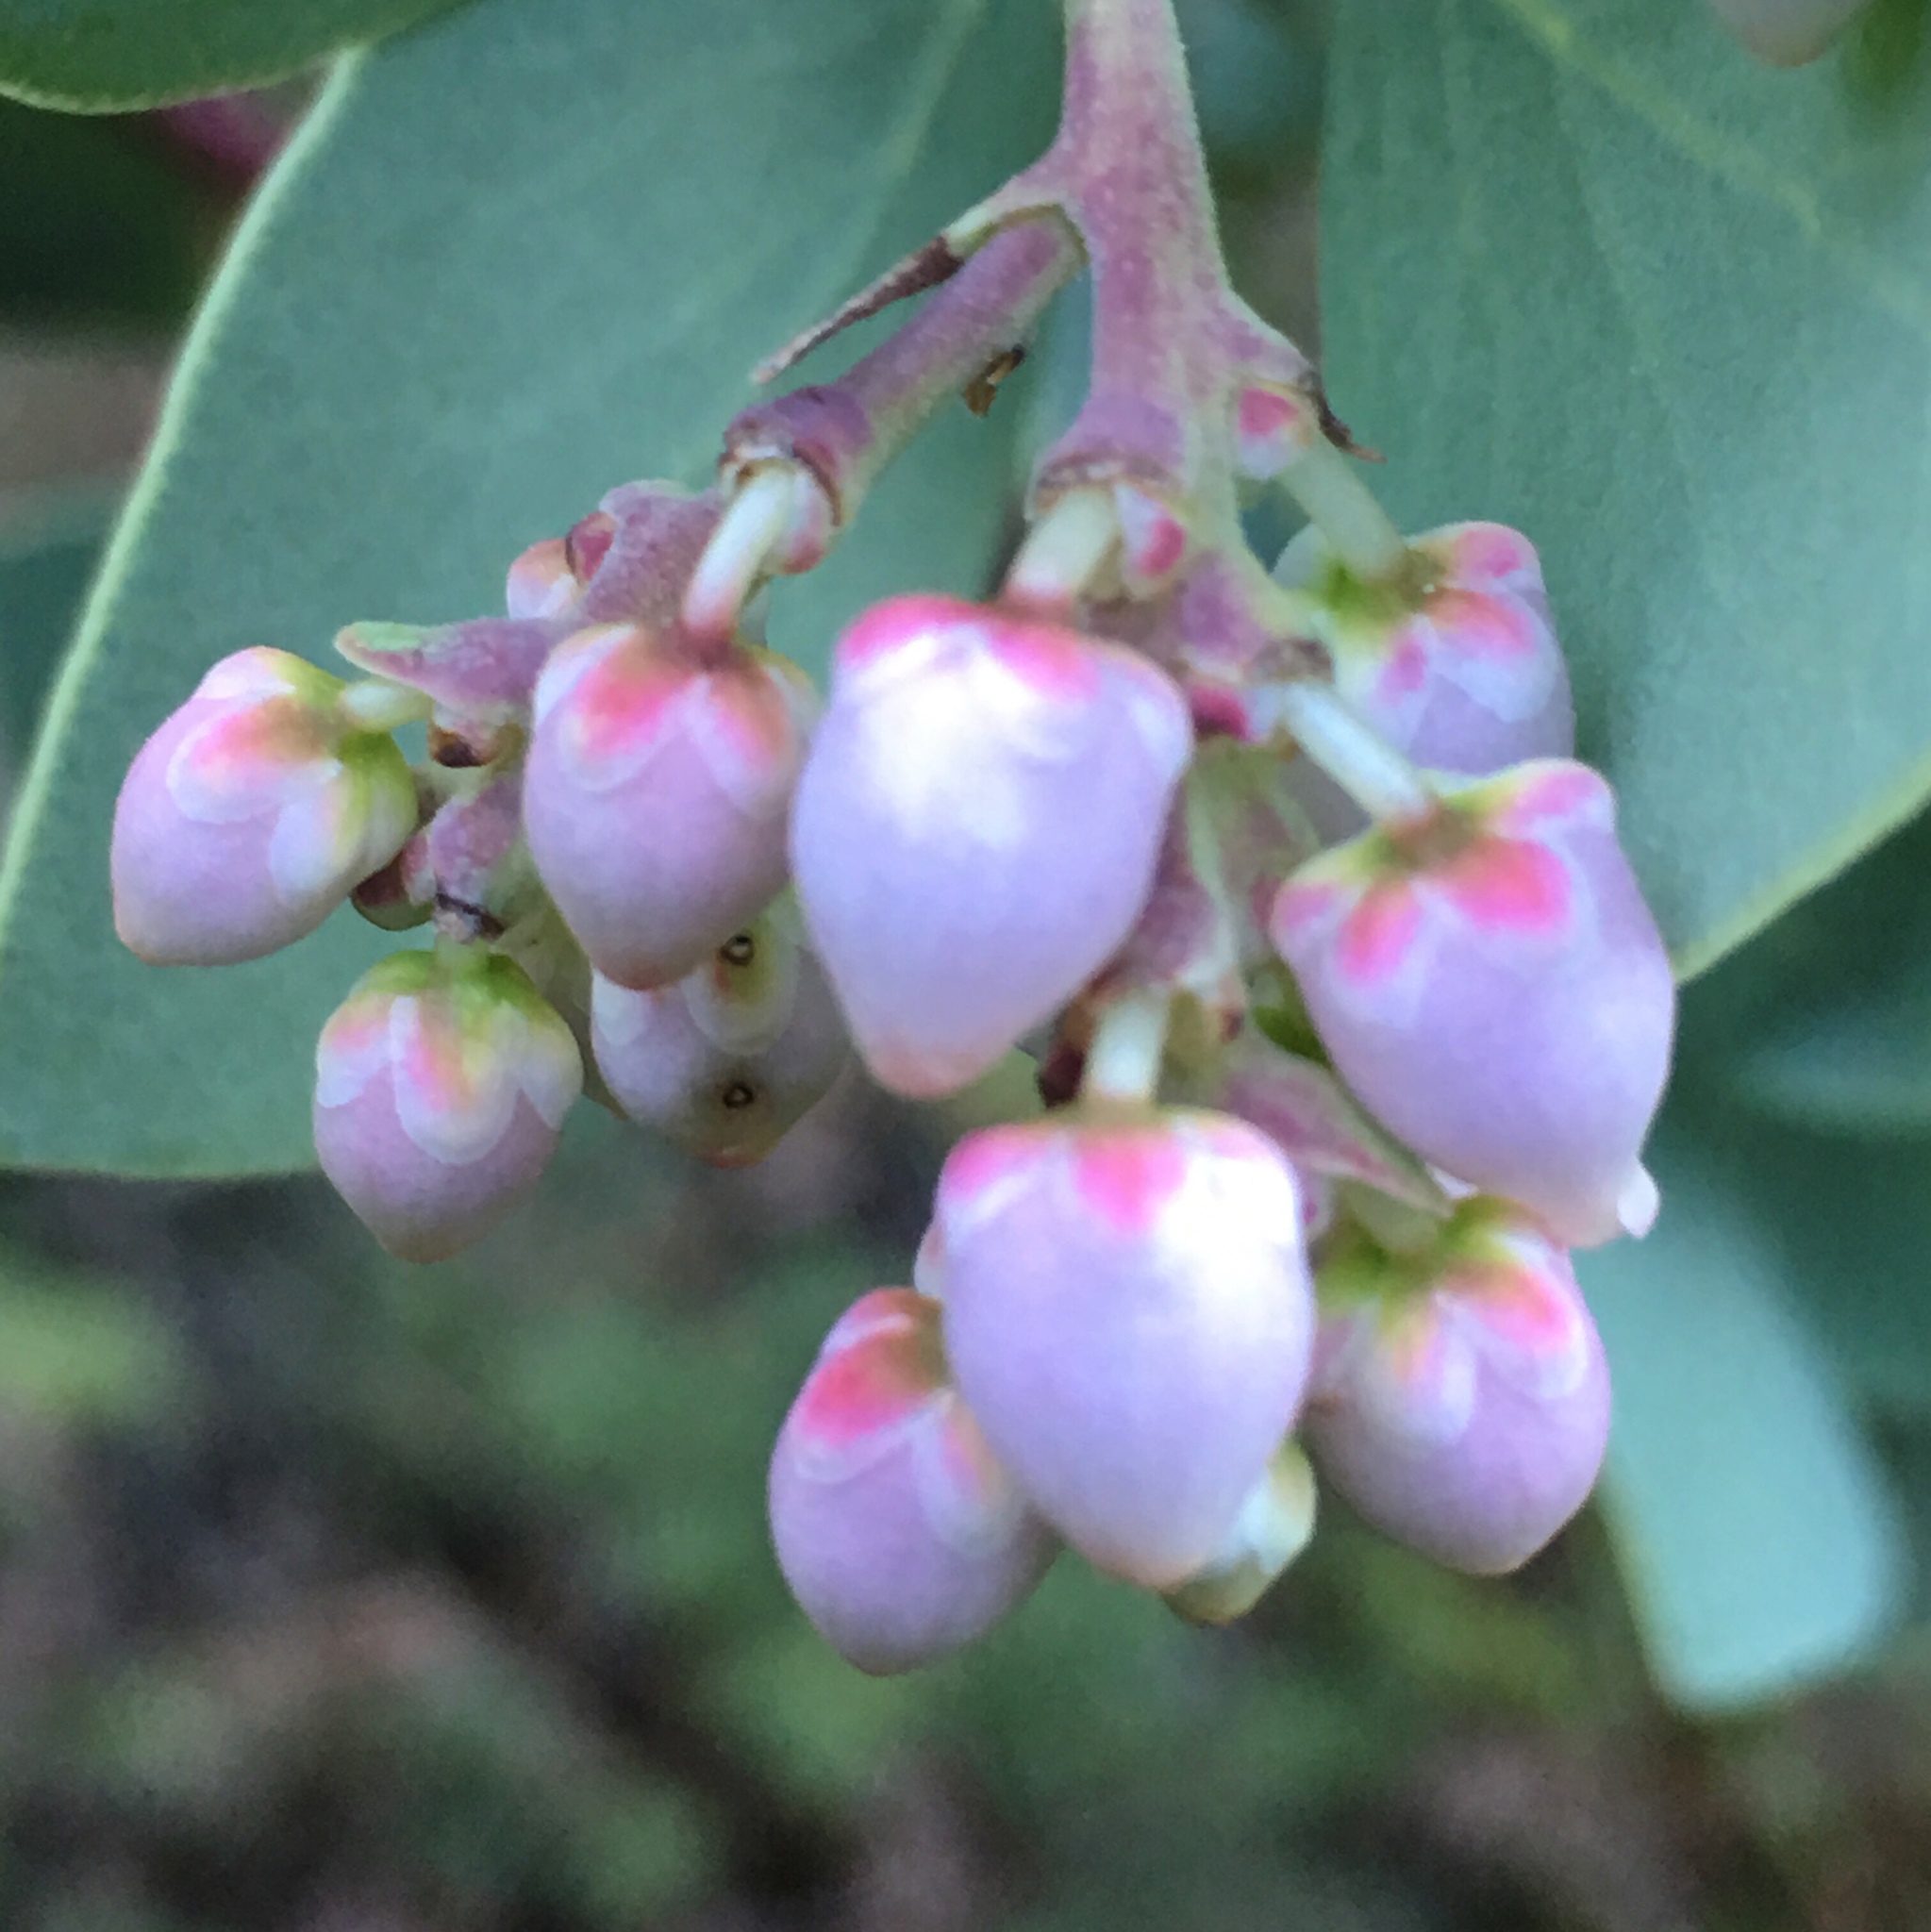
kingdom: Plantae
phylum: Tracheophyta
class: Magnoliopsida
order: Ericales
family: Ericaceae
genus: Arctostaphylos
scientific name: Arctostaphylos viscida
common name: White-leaf manzanita
